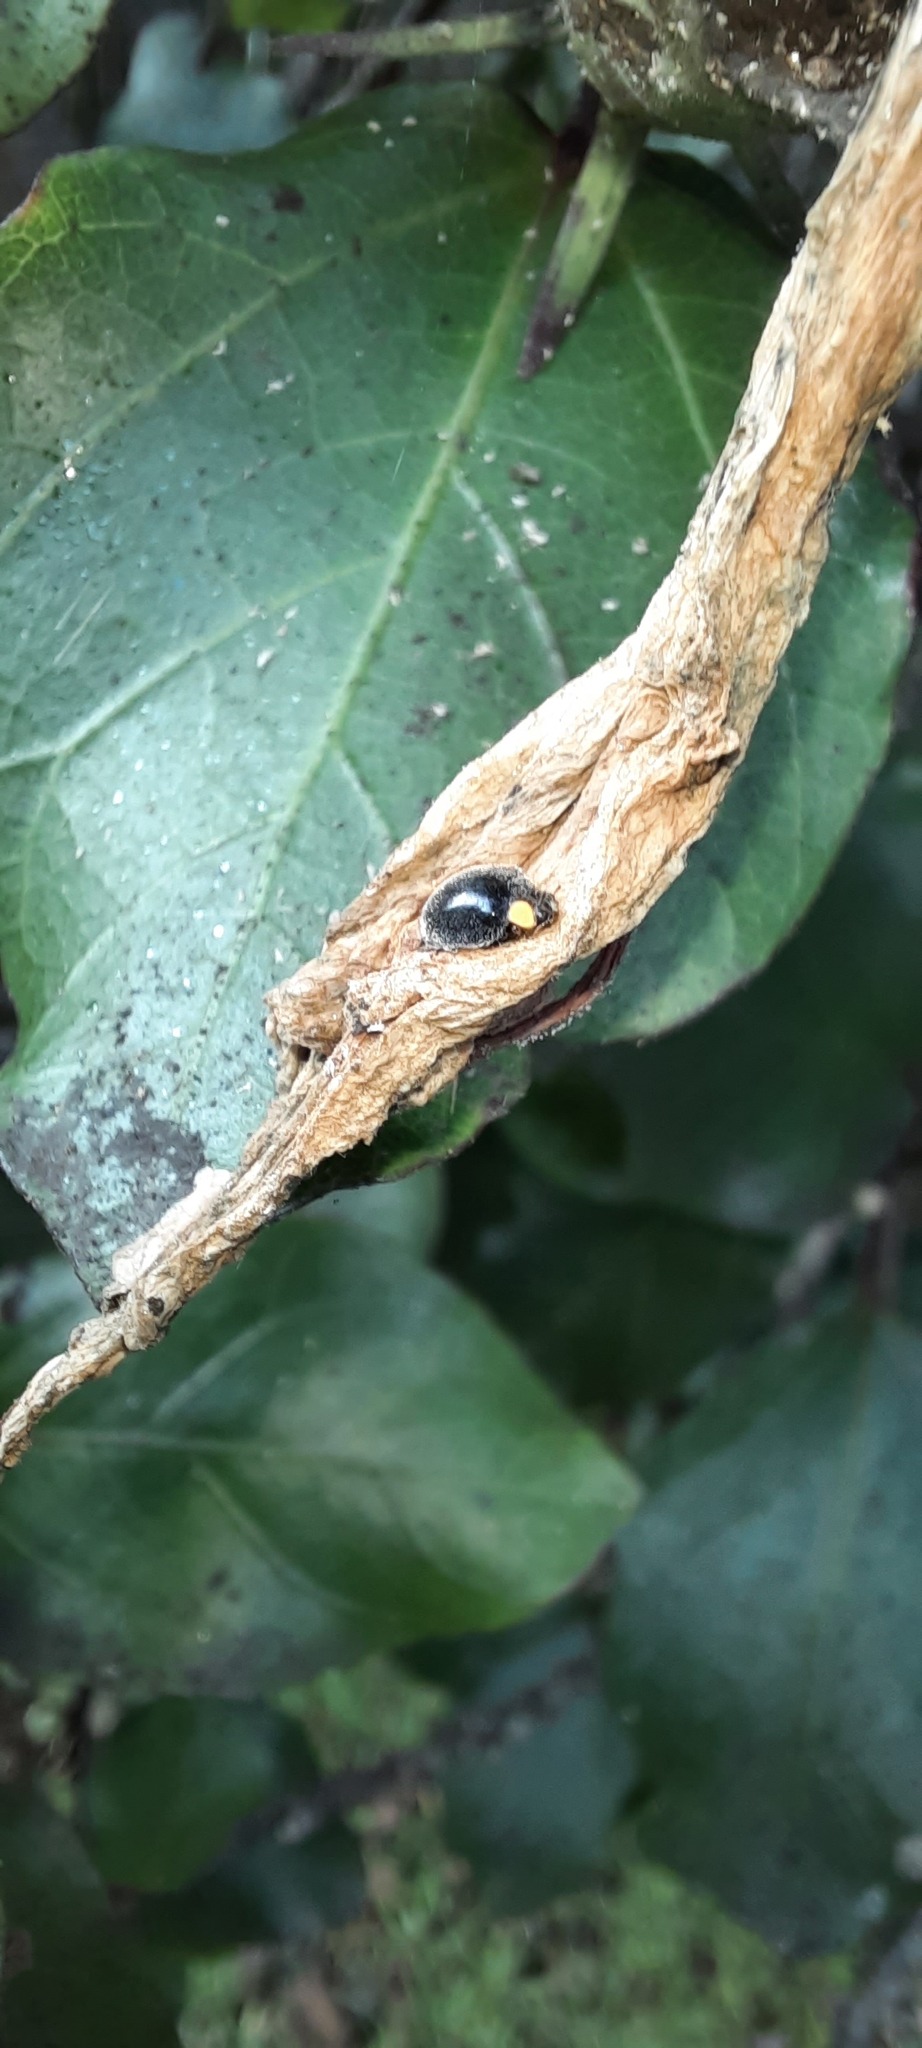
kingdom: Animalia
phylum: Arthropoda
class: Insecta
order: Coleoptera
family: Coccinellidae
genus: Scymnodes
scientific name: Scymnodes lividigaster
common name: Yellowshouldered lady beetle
